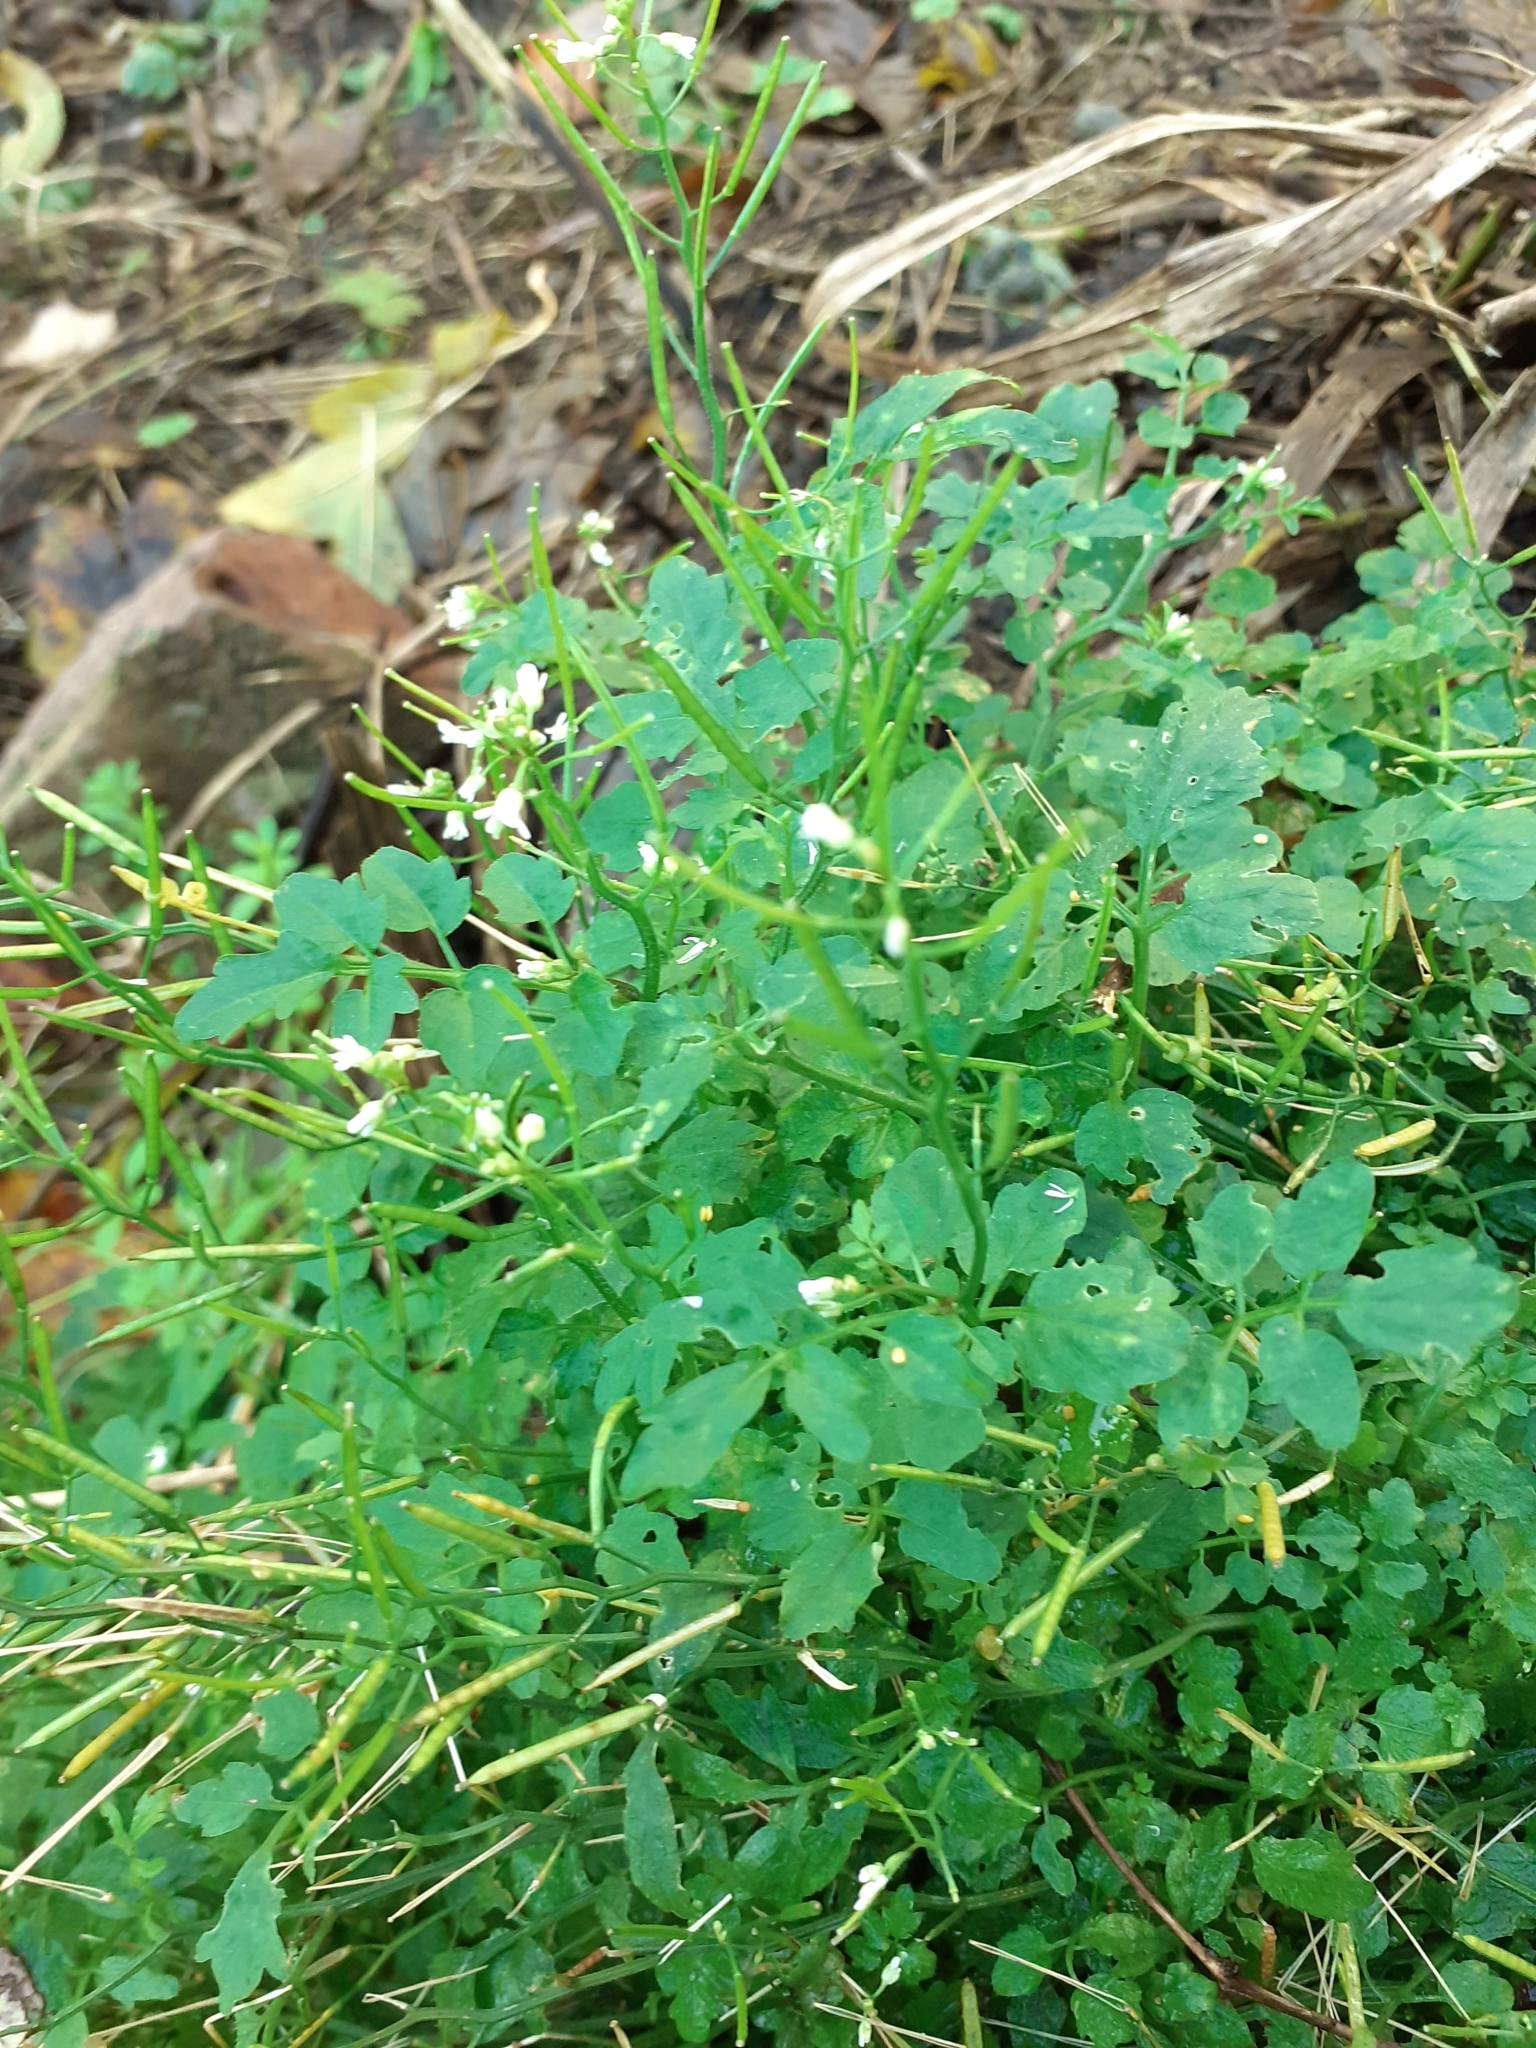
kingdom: Plantae
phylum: Tracheophyta
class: Magnoliopsida
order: Brassicales
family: Brassicaceae
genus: Cardamine
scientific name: Cardamine flexuosa
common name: Woodland bittercress
